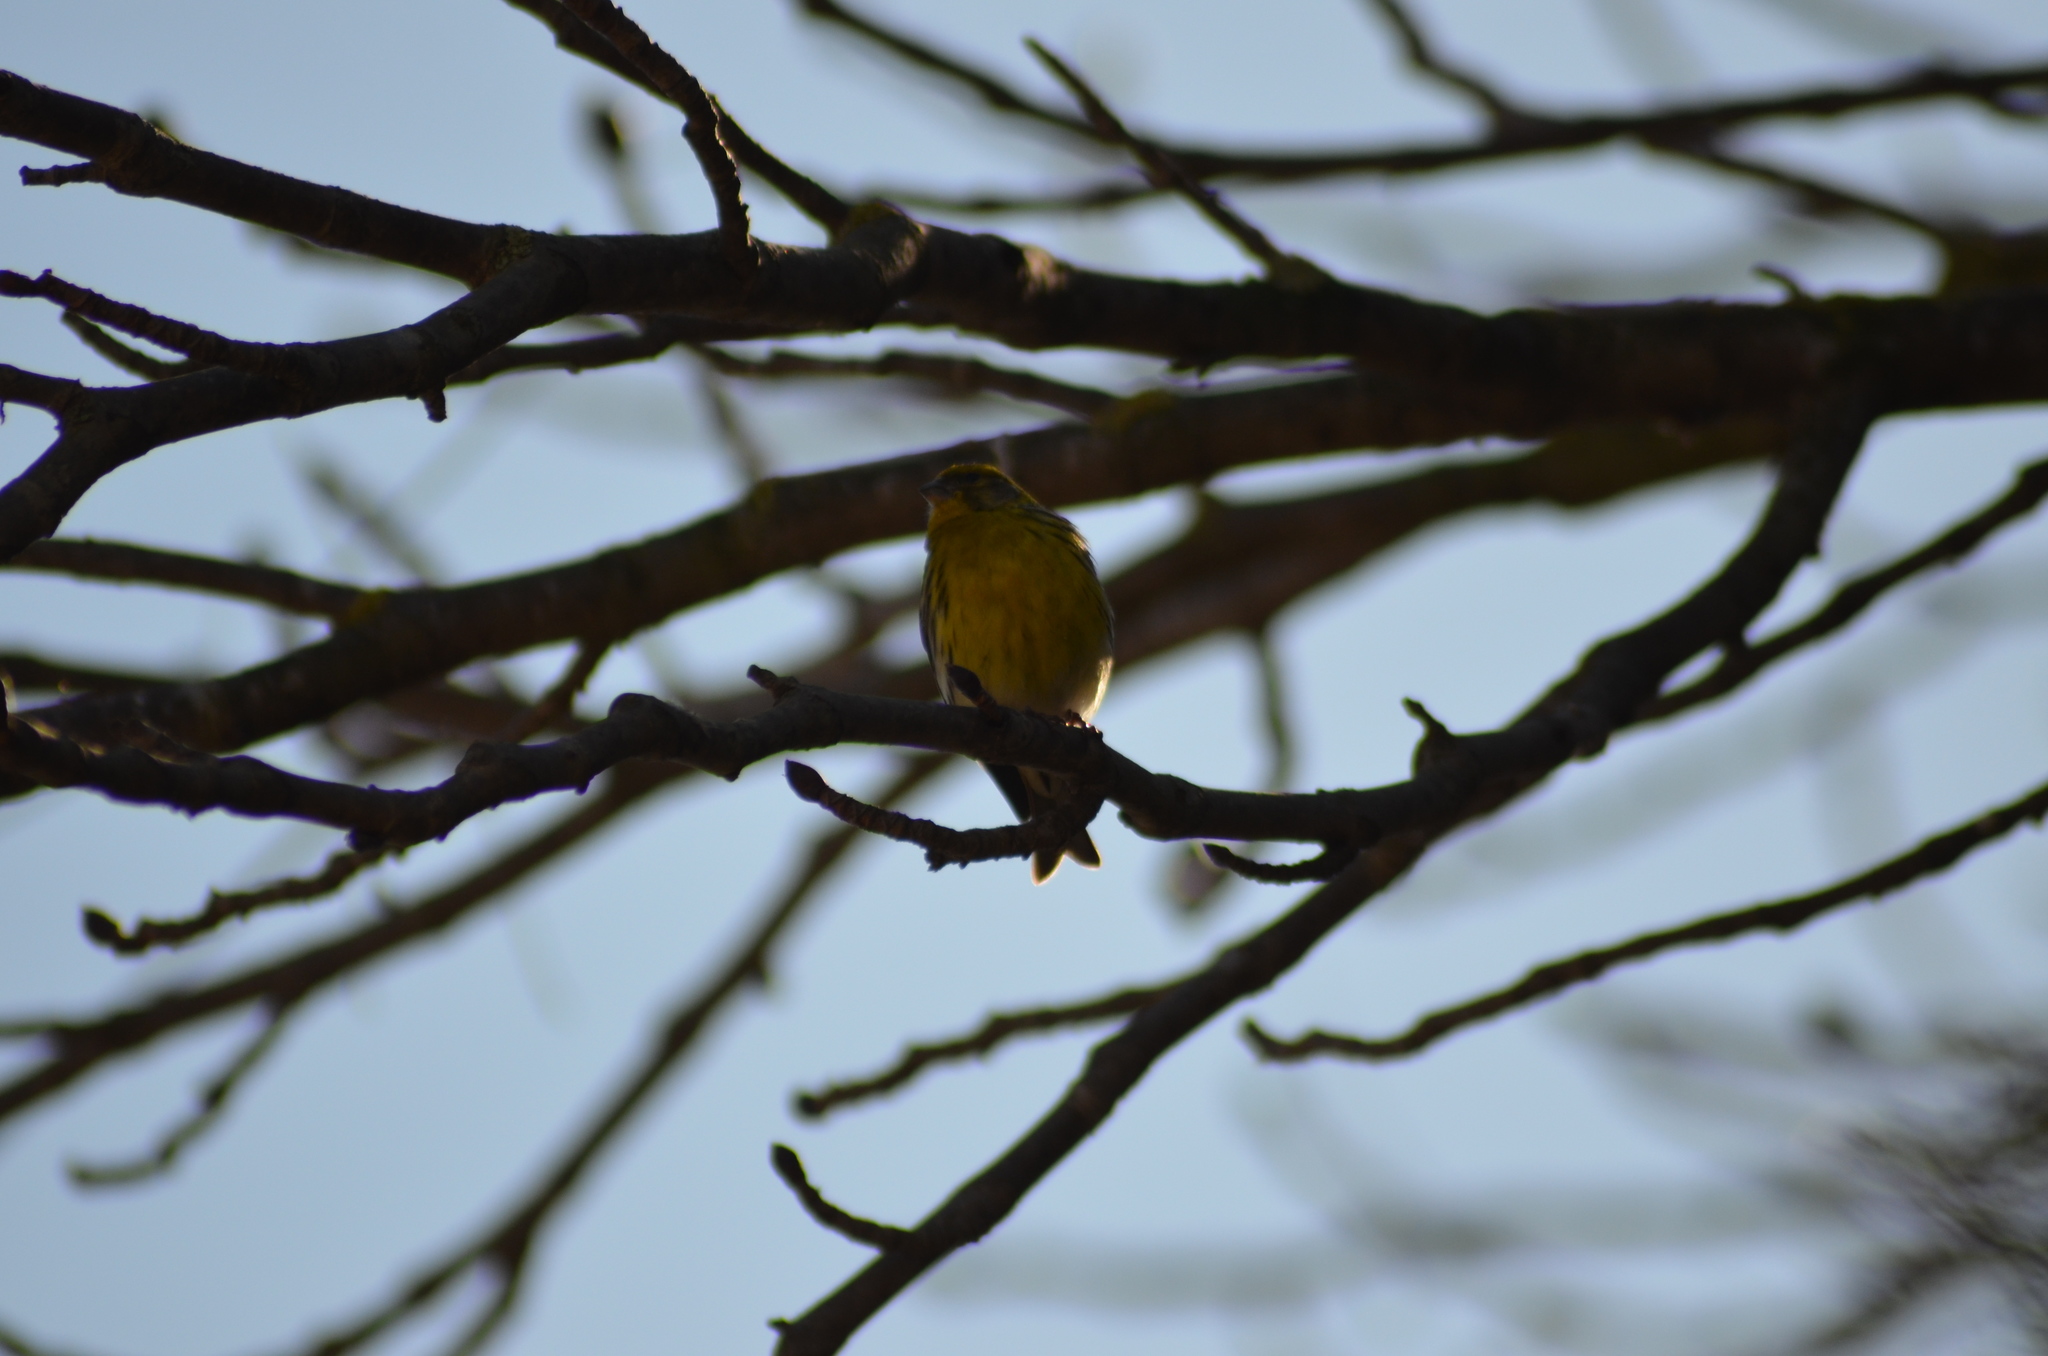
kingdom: Animalia
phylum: Chordata
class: Aves
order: Passeriformes
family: Fringillidae
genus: Serinus
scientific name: Serinus serinus
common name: European serin
